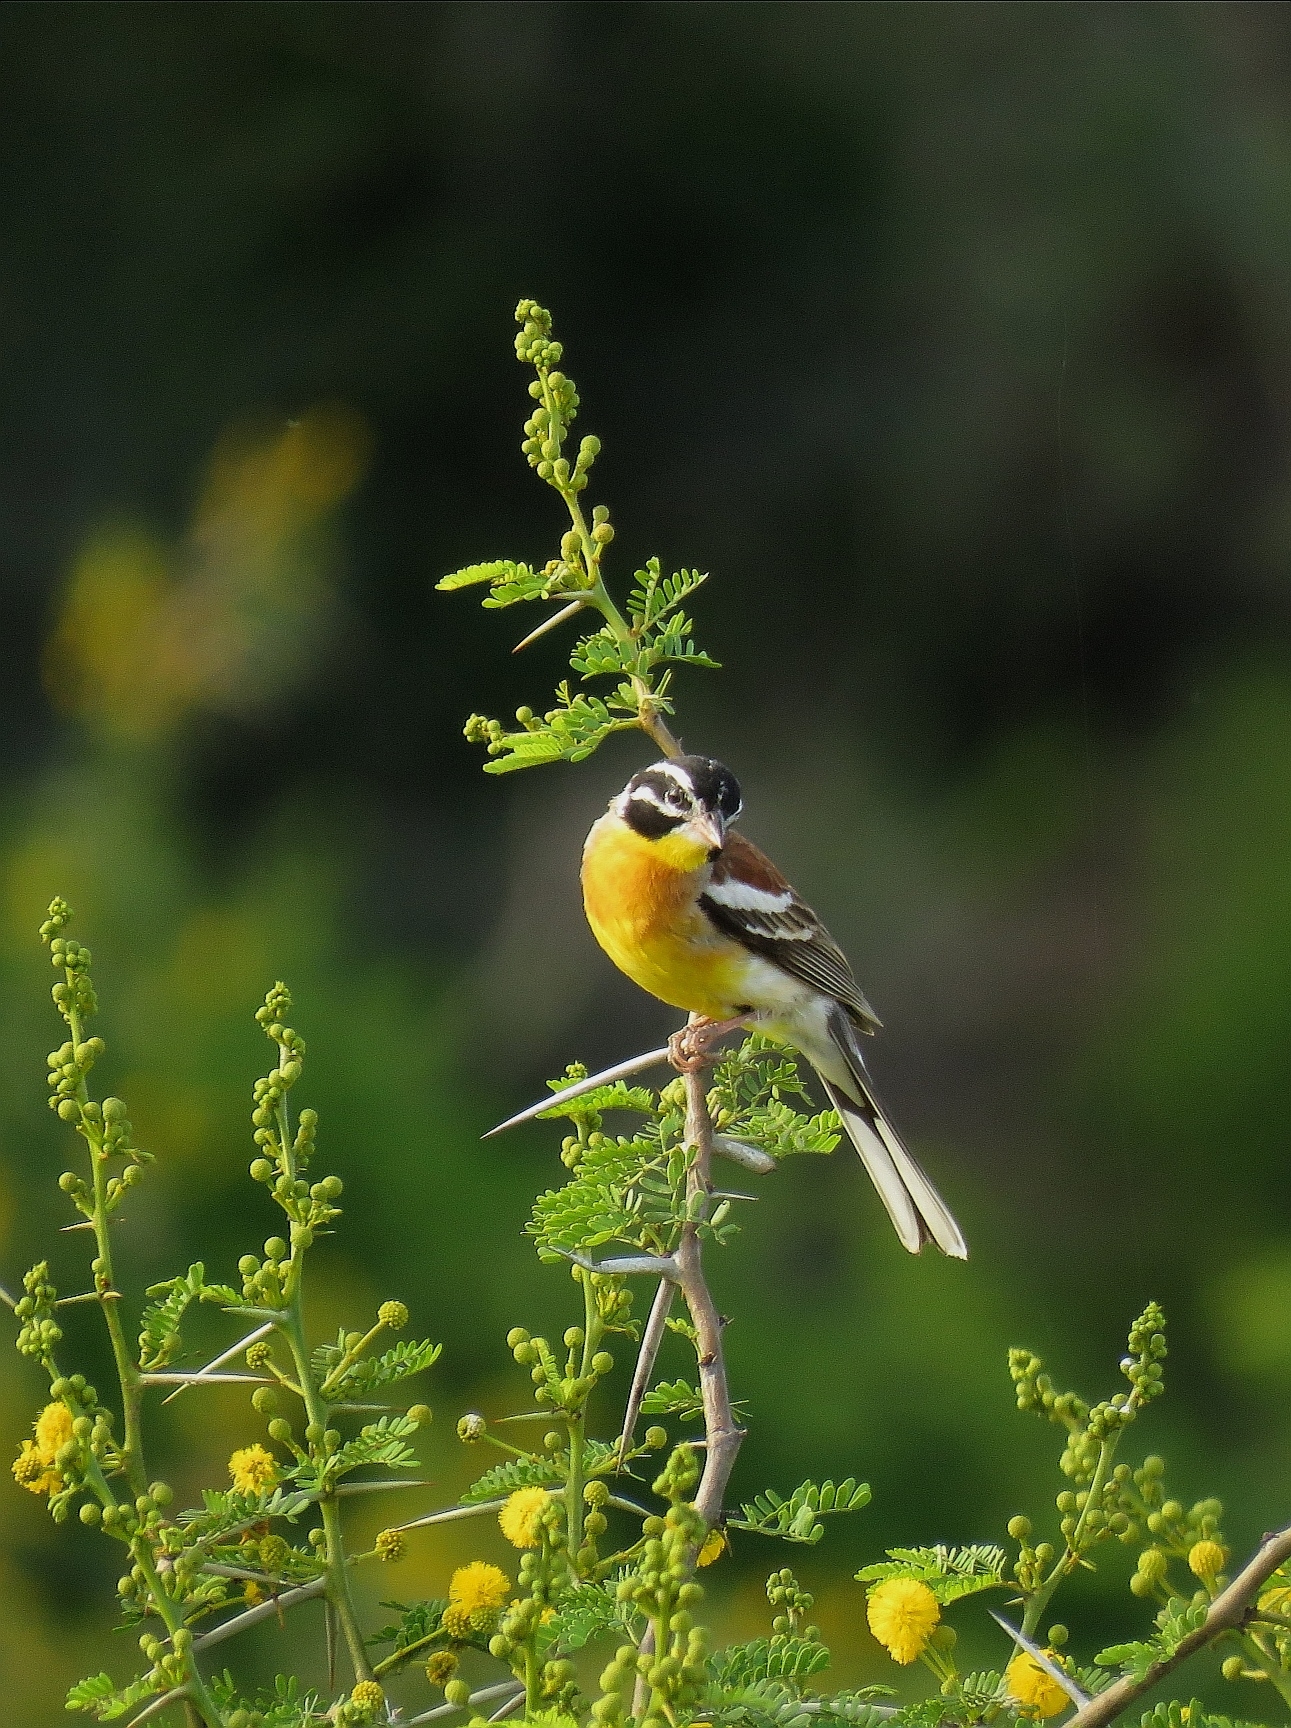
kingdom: Animalia
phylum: Chordata
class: Aves
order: Passeriformes
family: Emberizidae
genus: Emberiza
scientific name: Emberiza flaviventris
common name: Golden-breasted bunting
